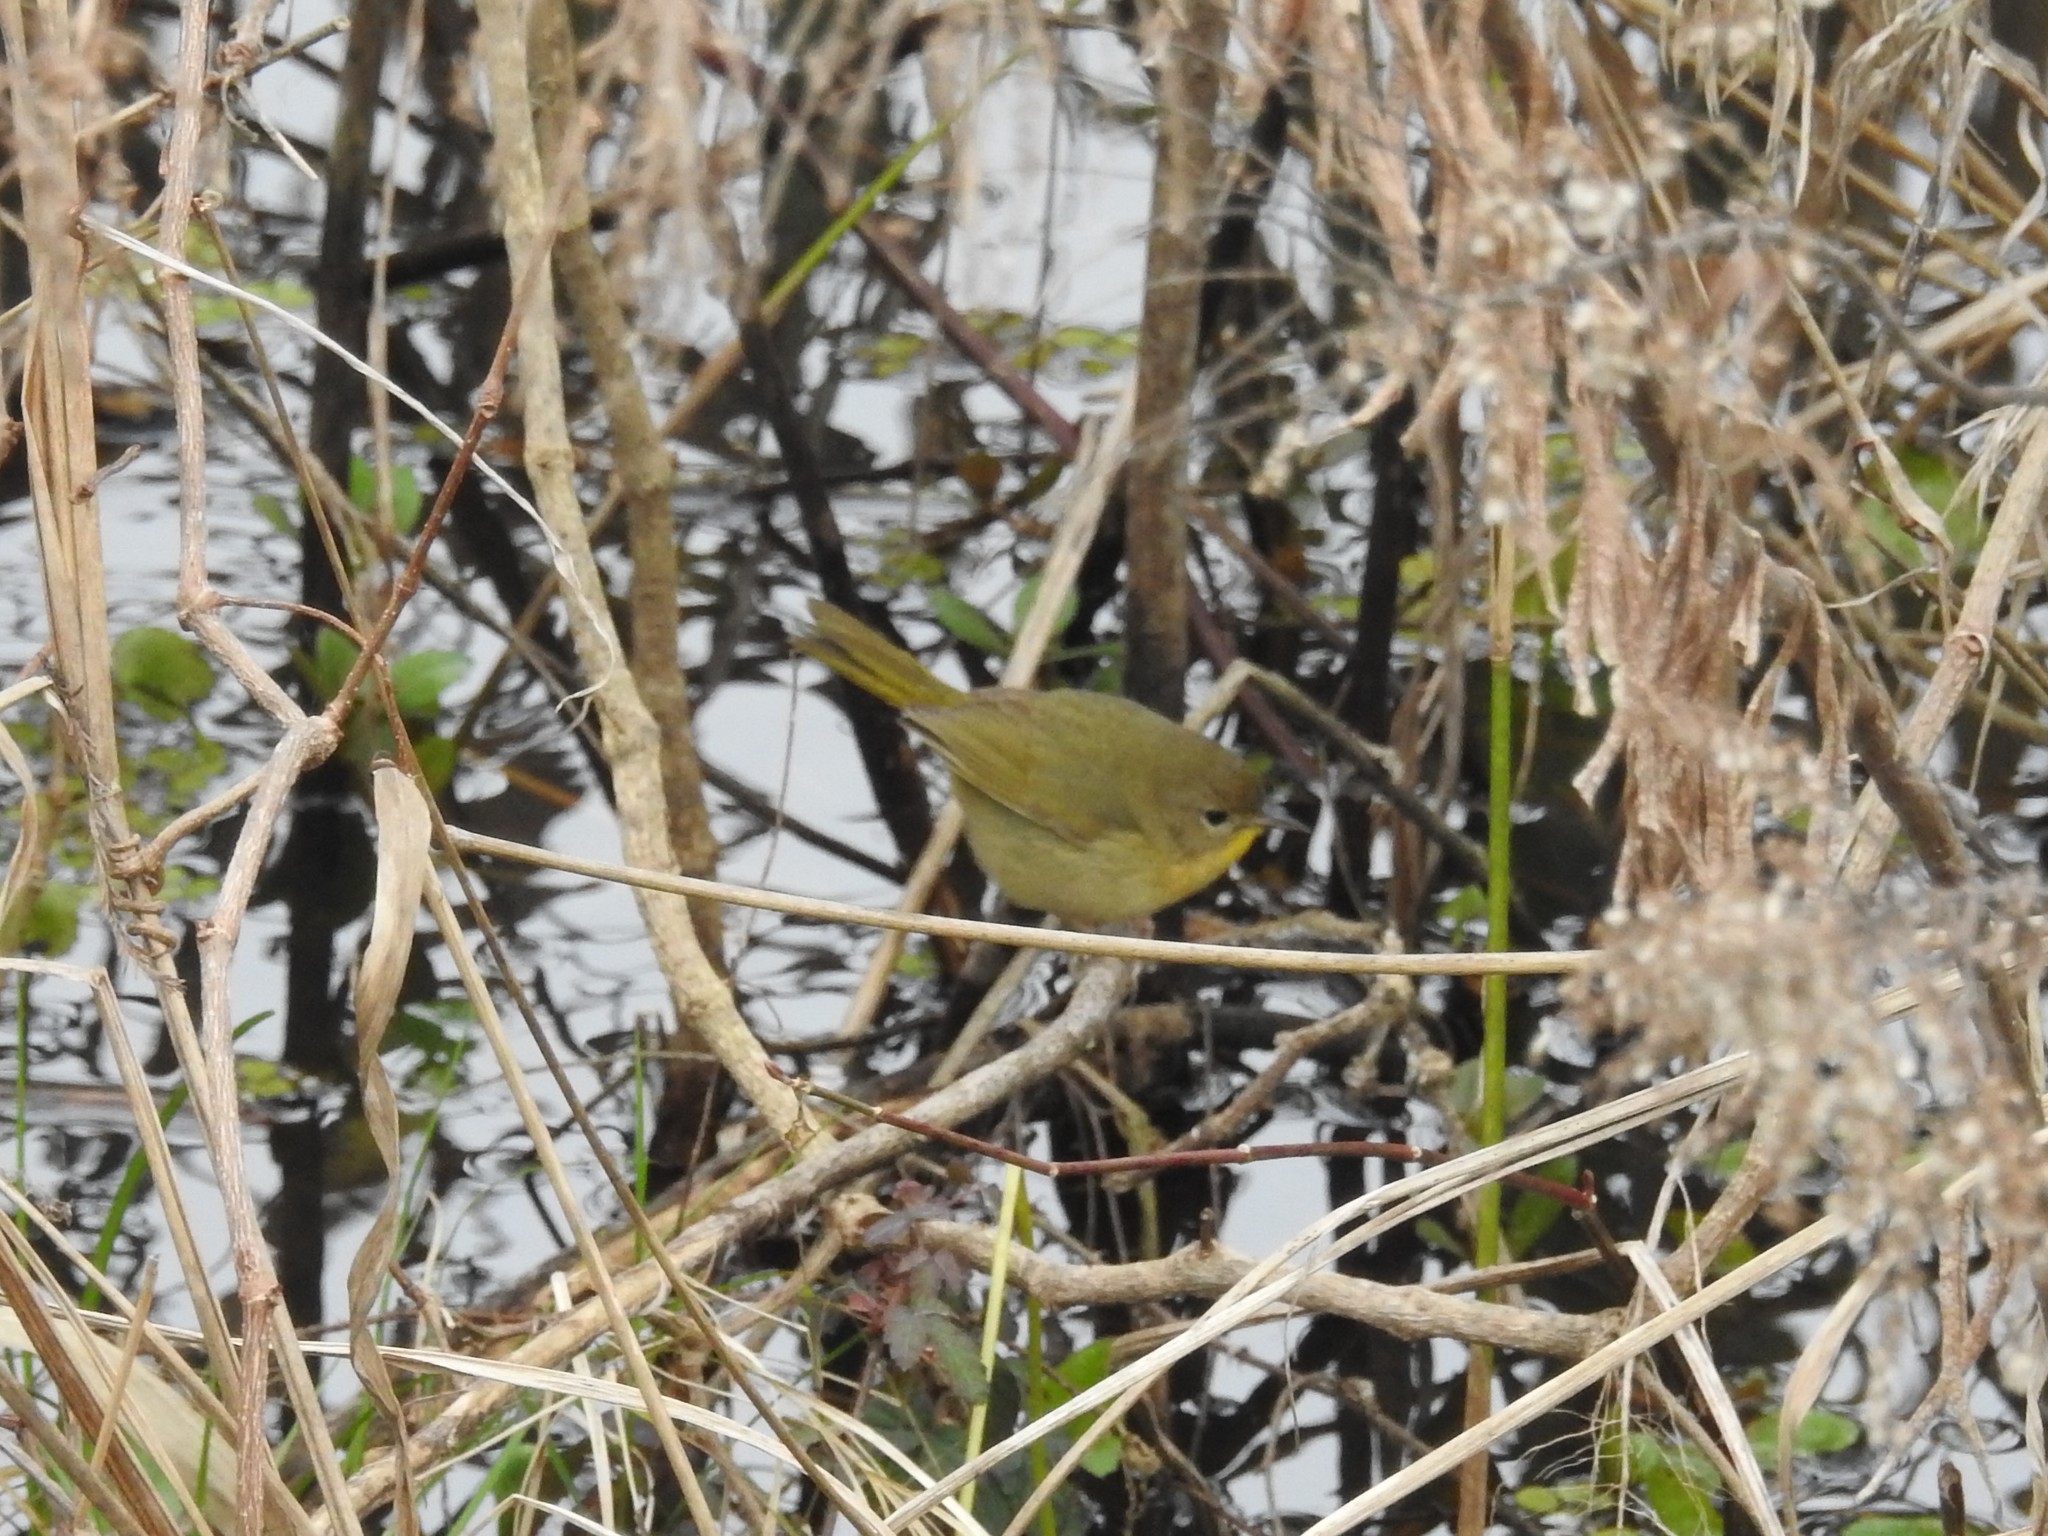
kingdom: Animalia
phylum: Chordata
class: Aves
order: Passeriformes
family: Parulidae
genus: Geothlypis
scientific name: Geothlypis trichas
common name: Common yellowthroat
